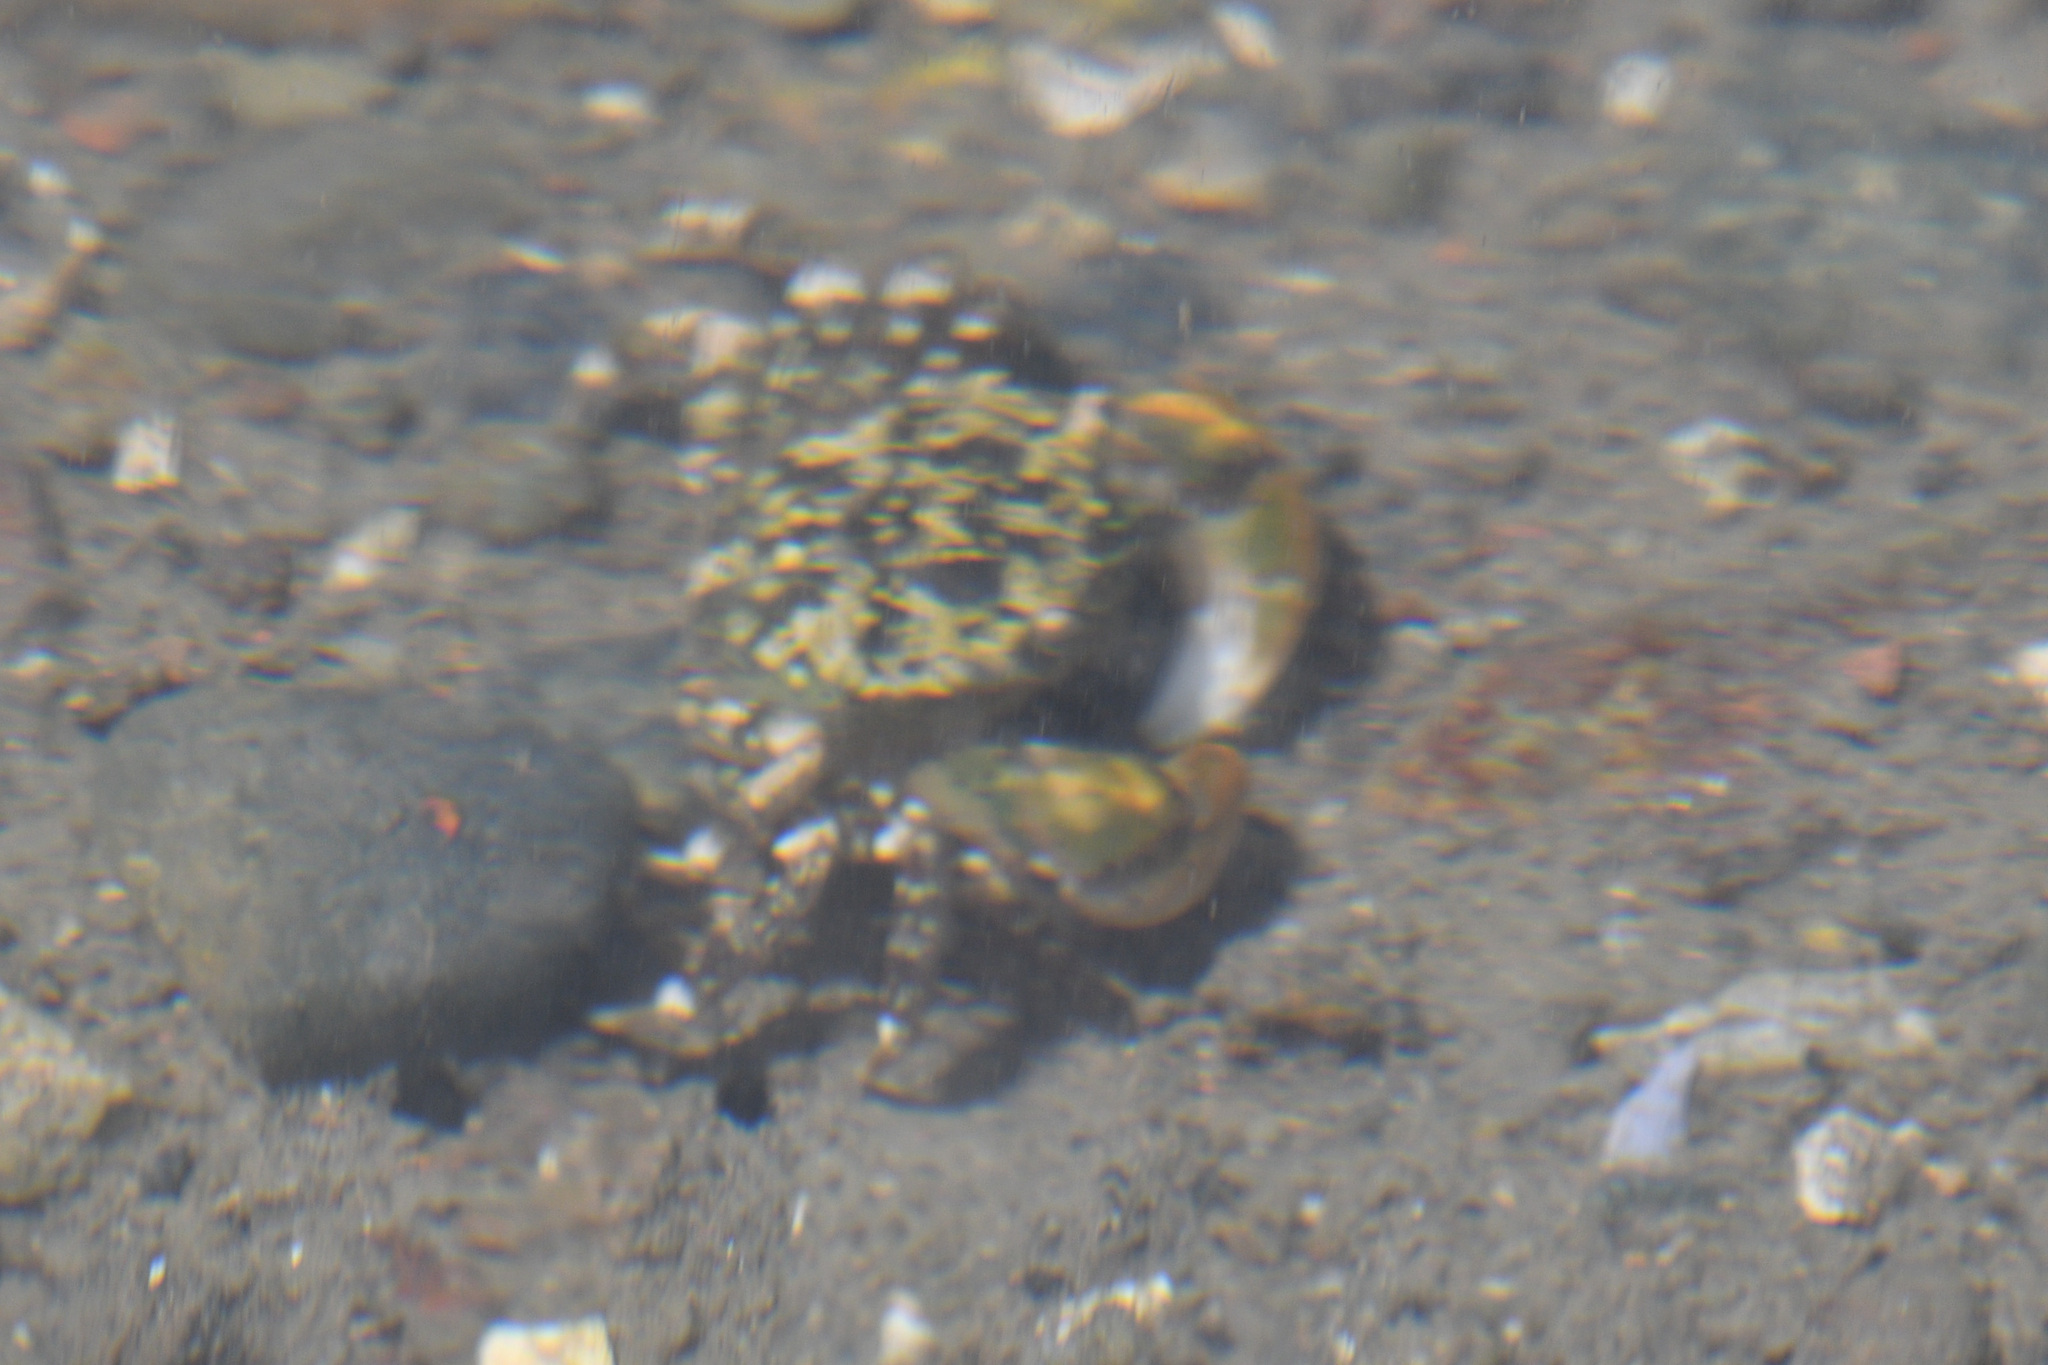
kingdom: Animalia
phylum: Arthropoda
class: Malacostraca
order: Decapoda
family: Varunidae
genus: Hemigrapsus
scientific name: Hemigrapsus oregonensis
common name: Yellow shore crab
